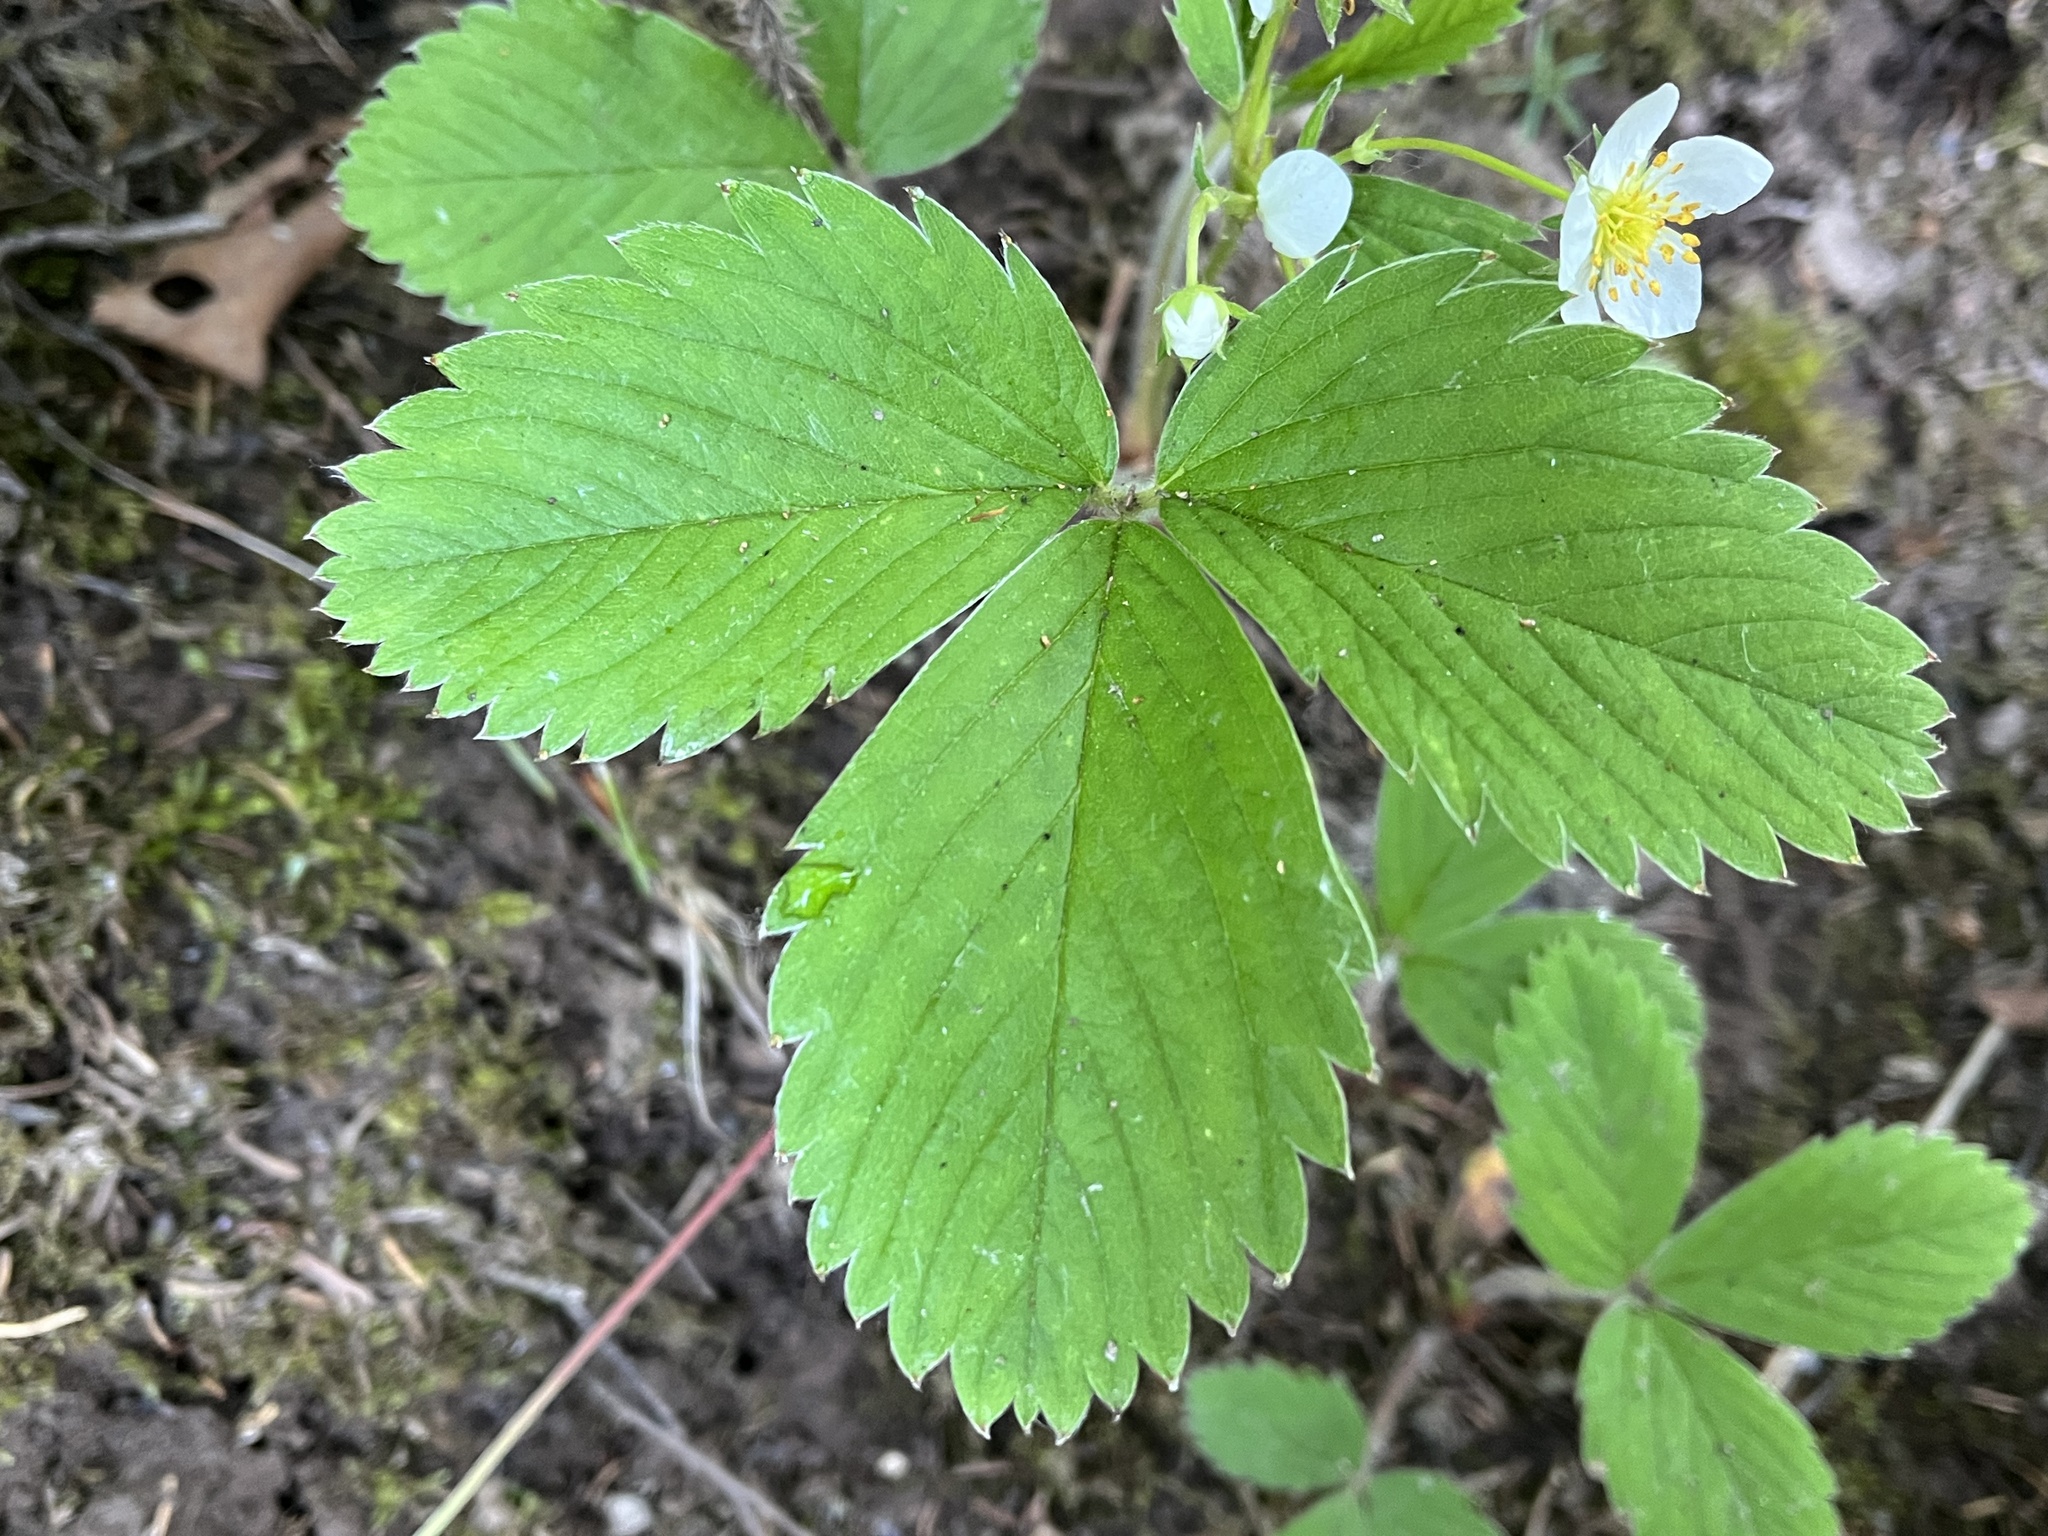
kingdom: Plantae
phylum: Tracheophyta
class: Magnoliopsida
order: Rosales
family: Rosaceae
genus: Fragaria
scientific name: Fragaria virginiana
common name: Thickleaved wild strawberry
